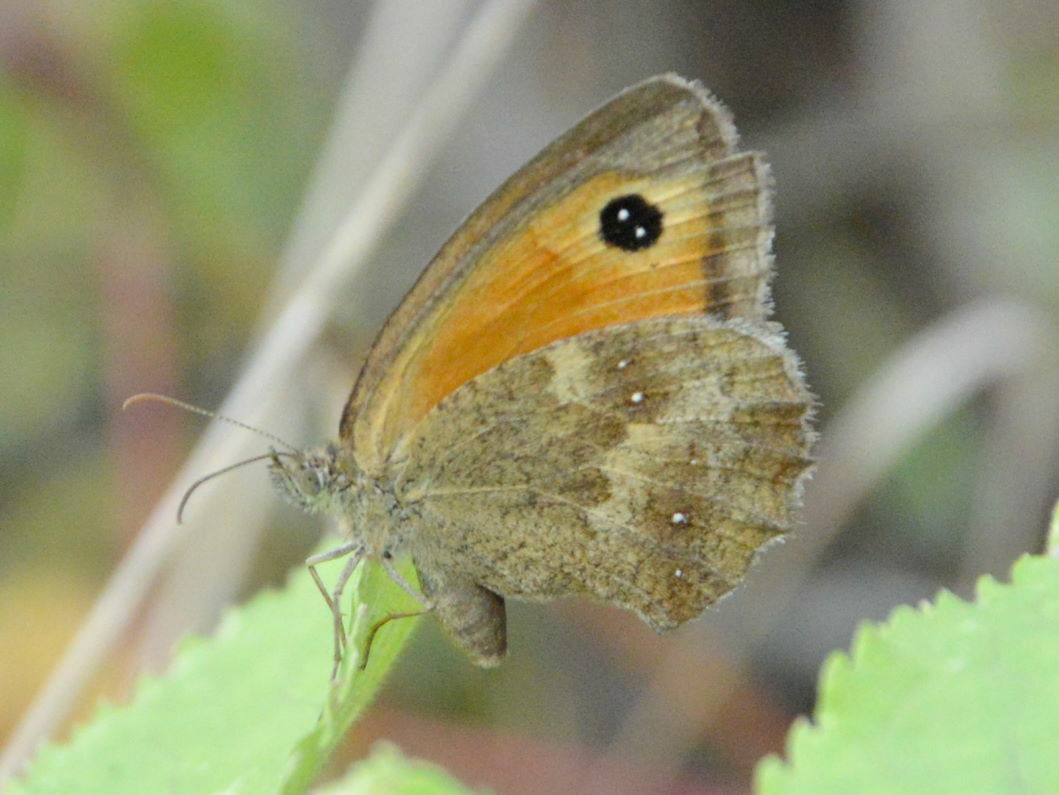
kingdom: Animalia
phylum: Arthropoda
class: Insecta
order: Lepidoptera
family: Nymphalidae
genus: Pyronia
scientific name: Pyronia tithonus
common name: Gatekeeper
